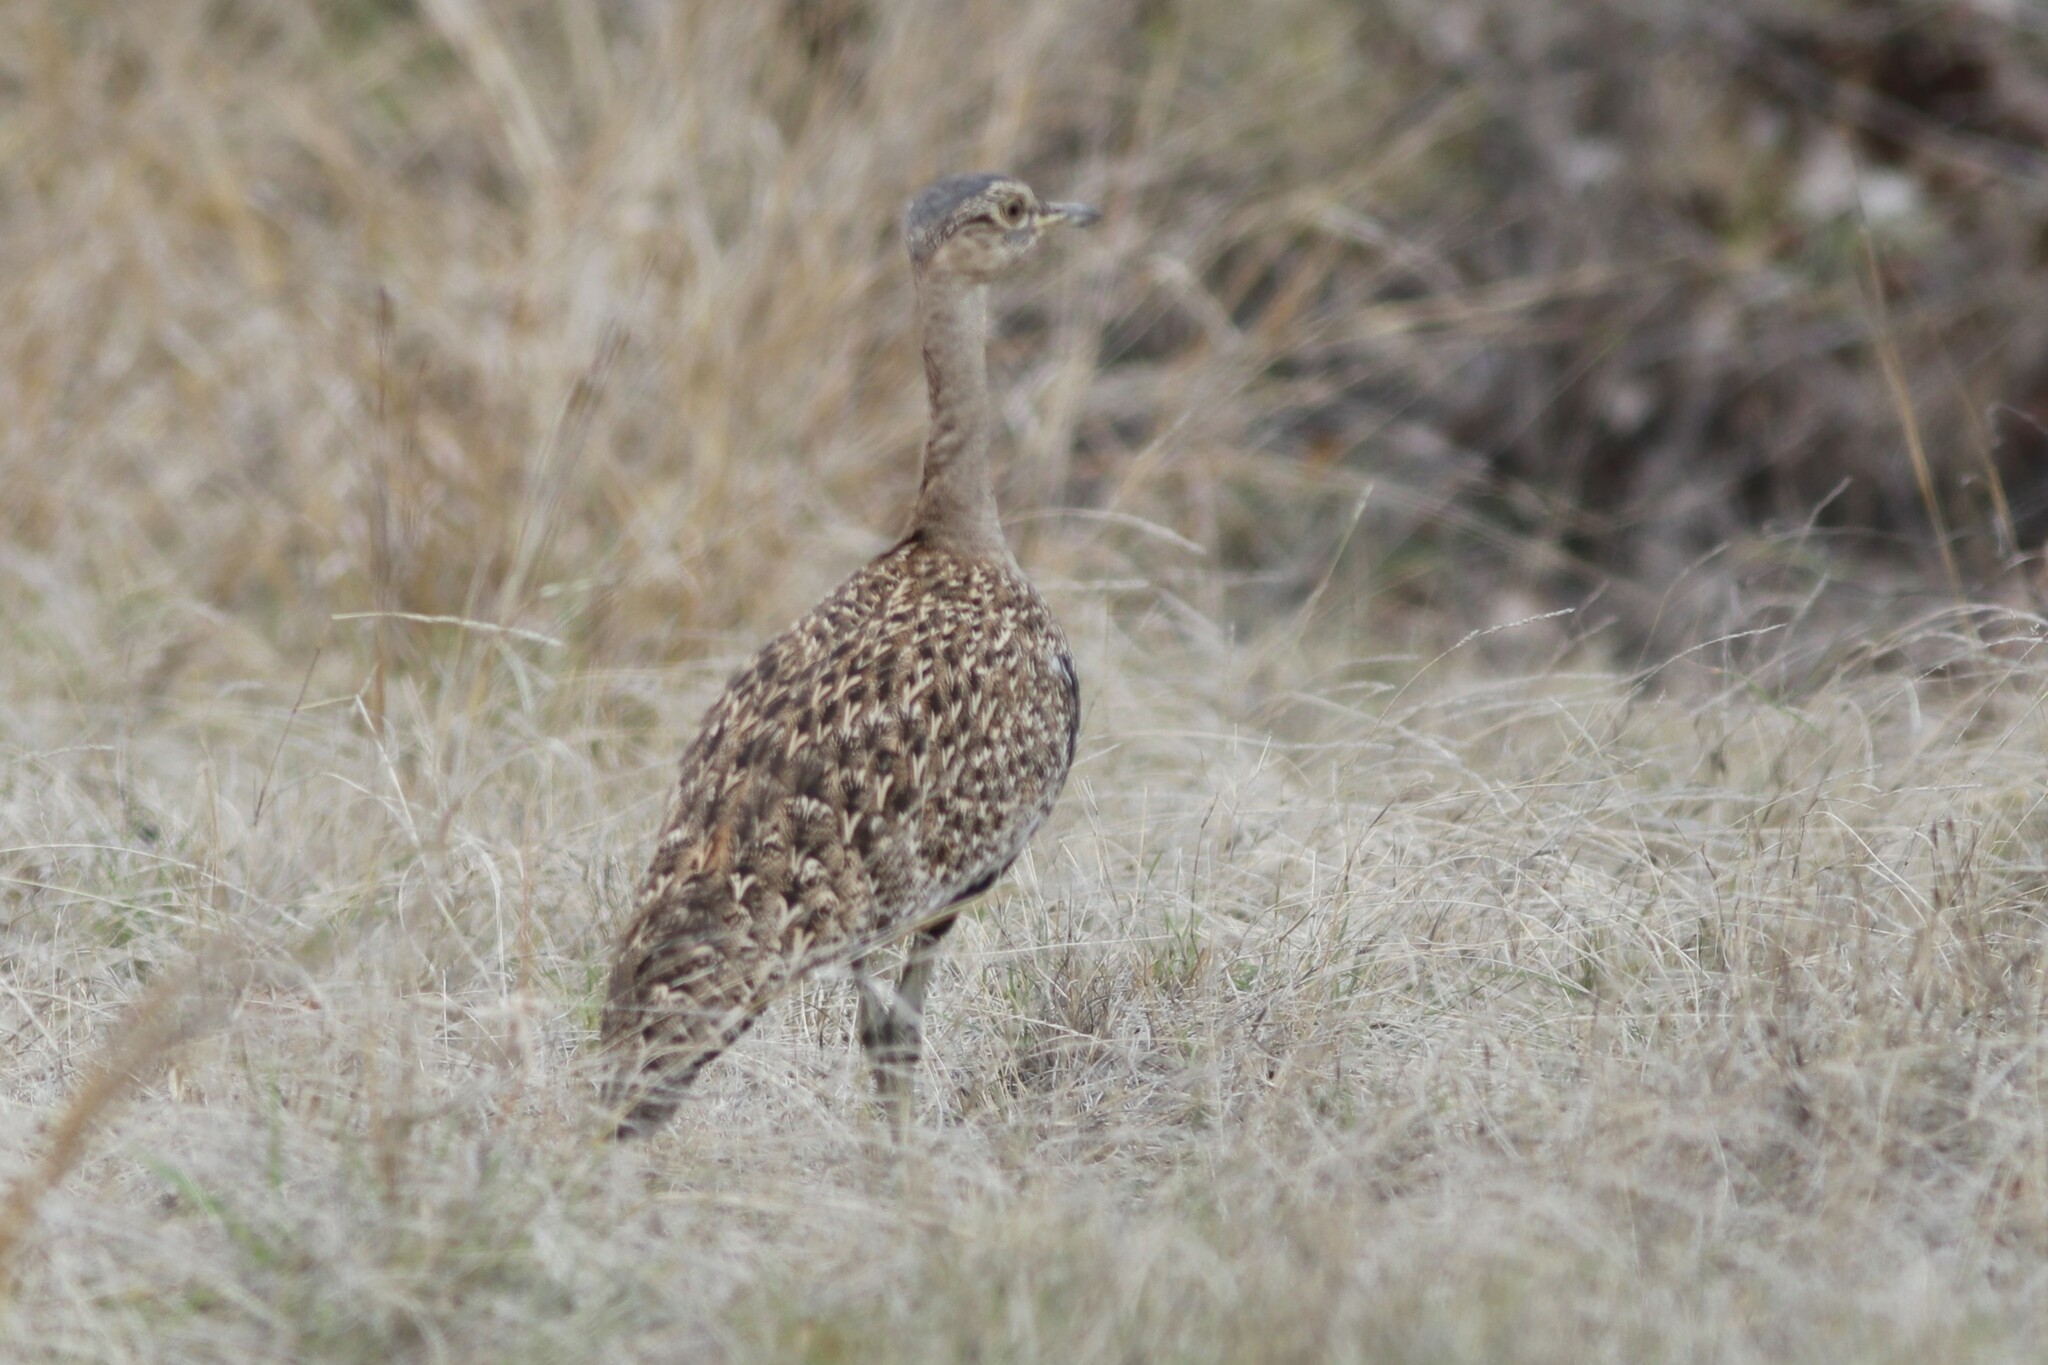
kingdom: Animalia
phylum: Chordata
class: Aves
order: Otidiformes
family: Otididae
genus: Lophotis
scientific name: Lophotis ruficrista
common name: Red-crested korhaan
